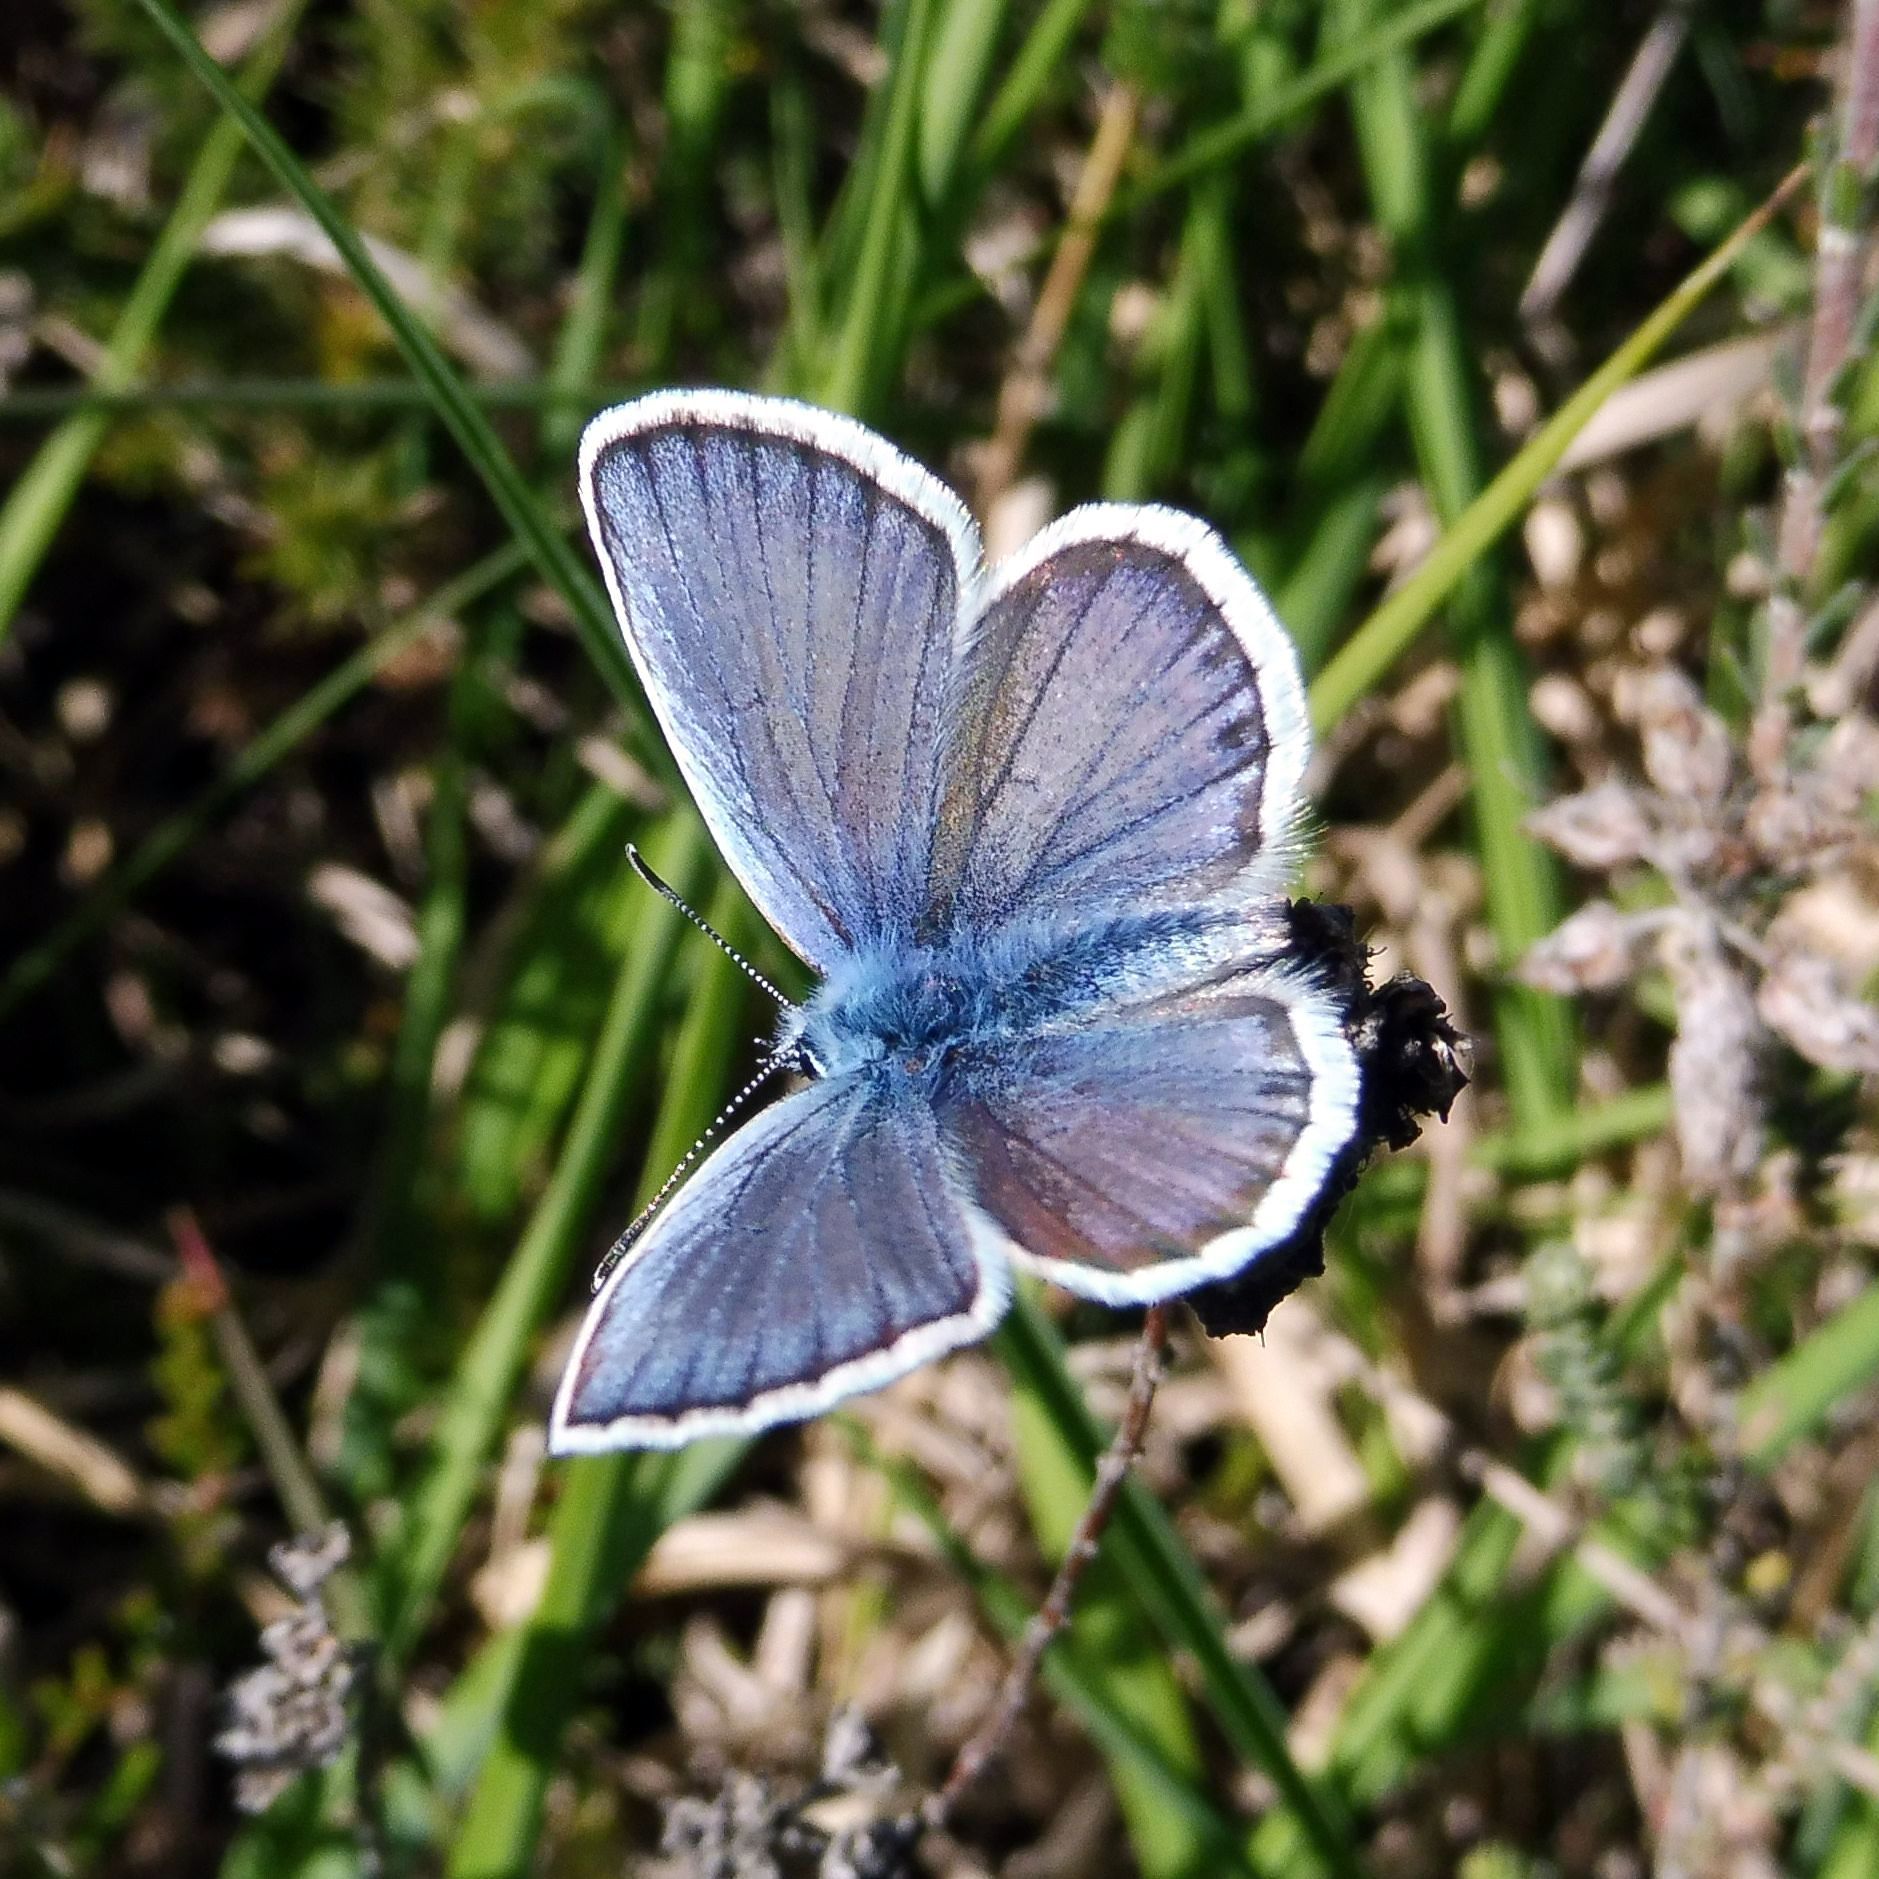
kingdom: Animalia
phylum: Arthropoda
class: Insecta
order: Lepidoptera
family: Lycaenidae
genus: Plebejus
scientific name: Plebejus argus
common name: Silver-studded blue
